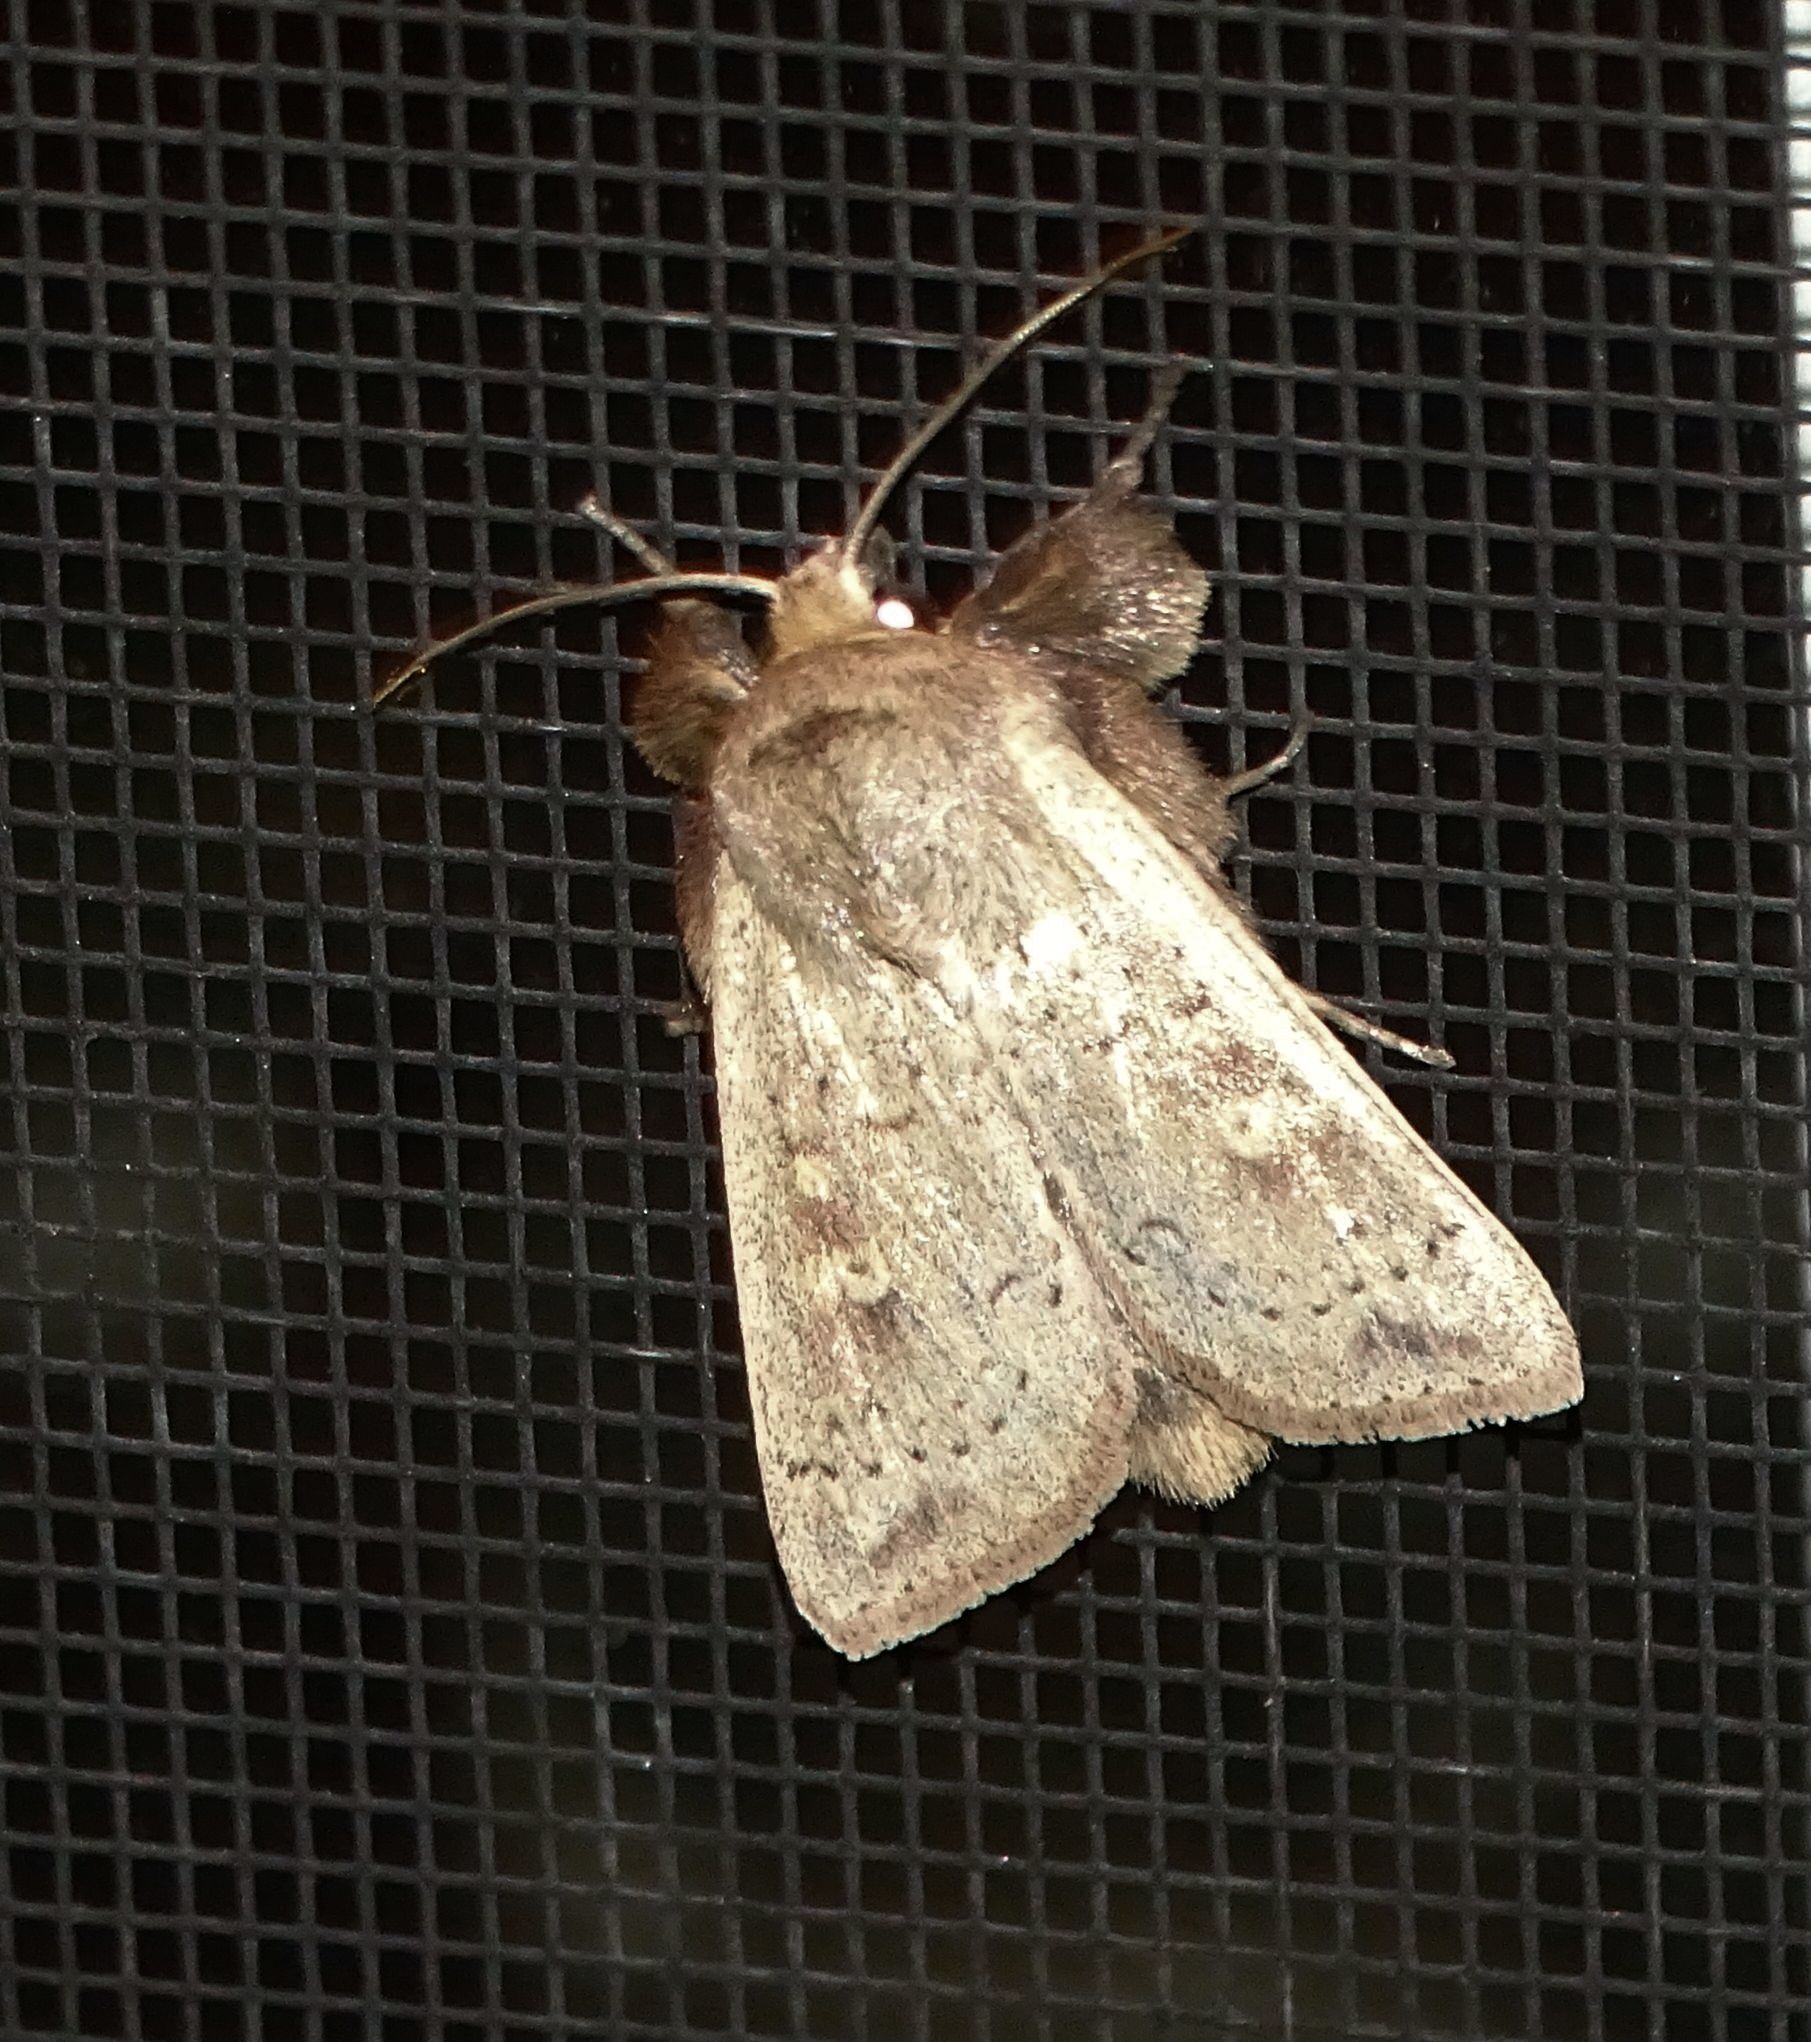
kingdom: Animalia
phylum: Arthropoda
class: Insecta
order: Lepidoptera
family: Noctuidae
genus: Leucania
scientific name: Leucania ursula
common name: Ursula wainscot
